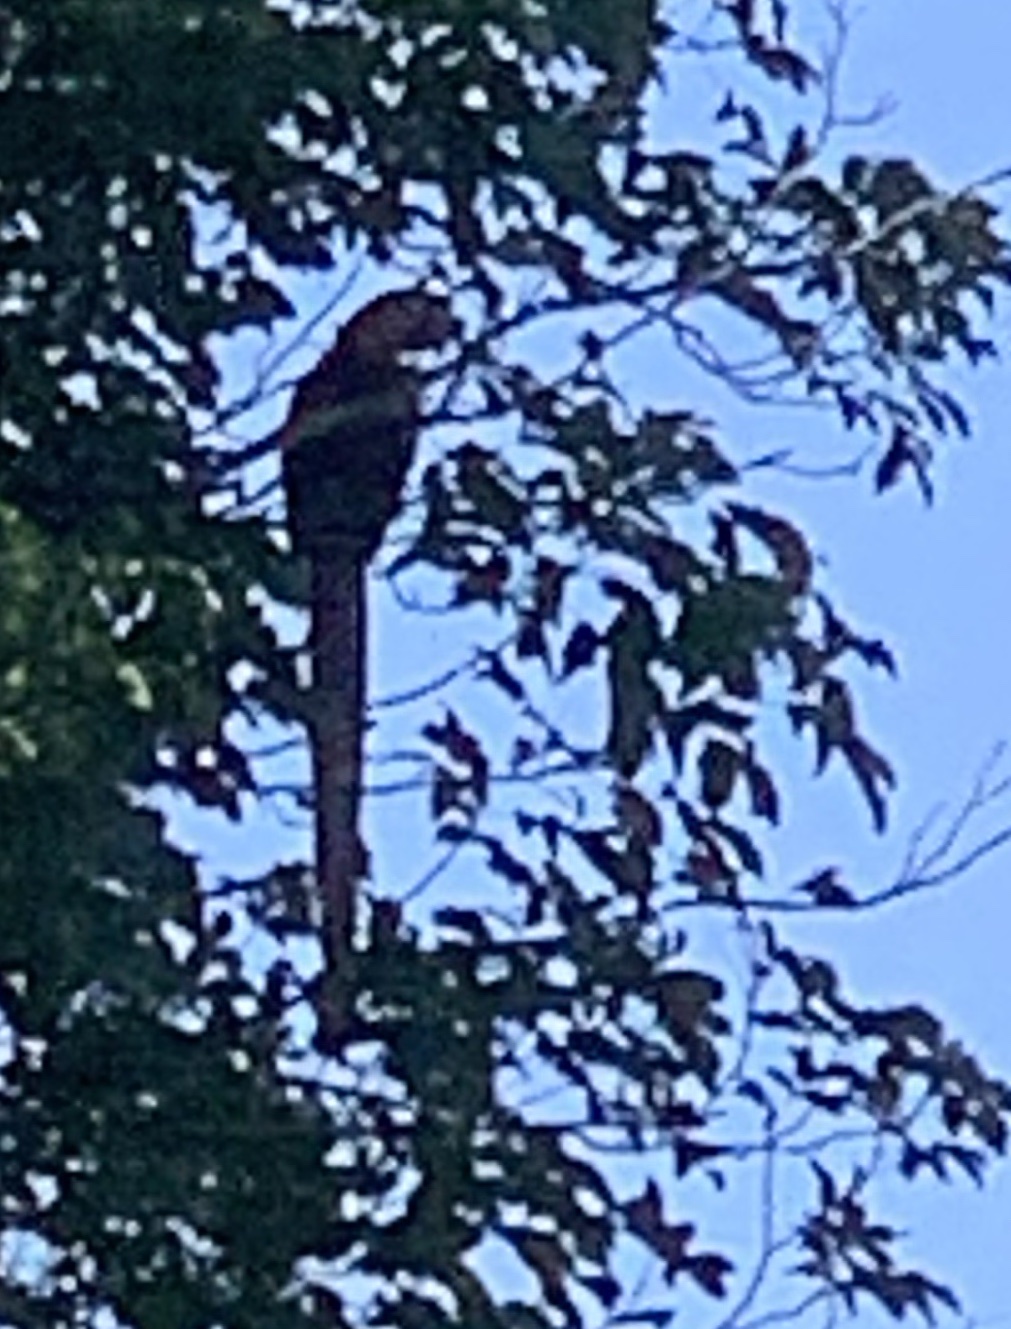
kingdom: Animalia
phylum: Chordata
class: Aves
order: Psittaciformes
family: Psittacidae
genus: Ara
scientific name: Ara macao
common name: Scarlet macaw
